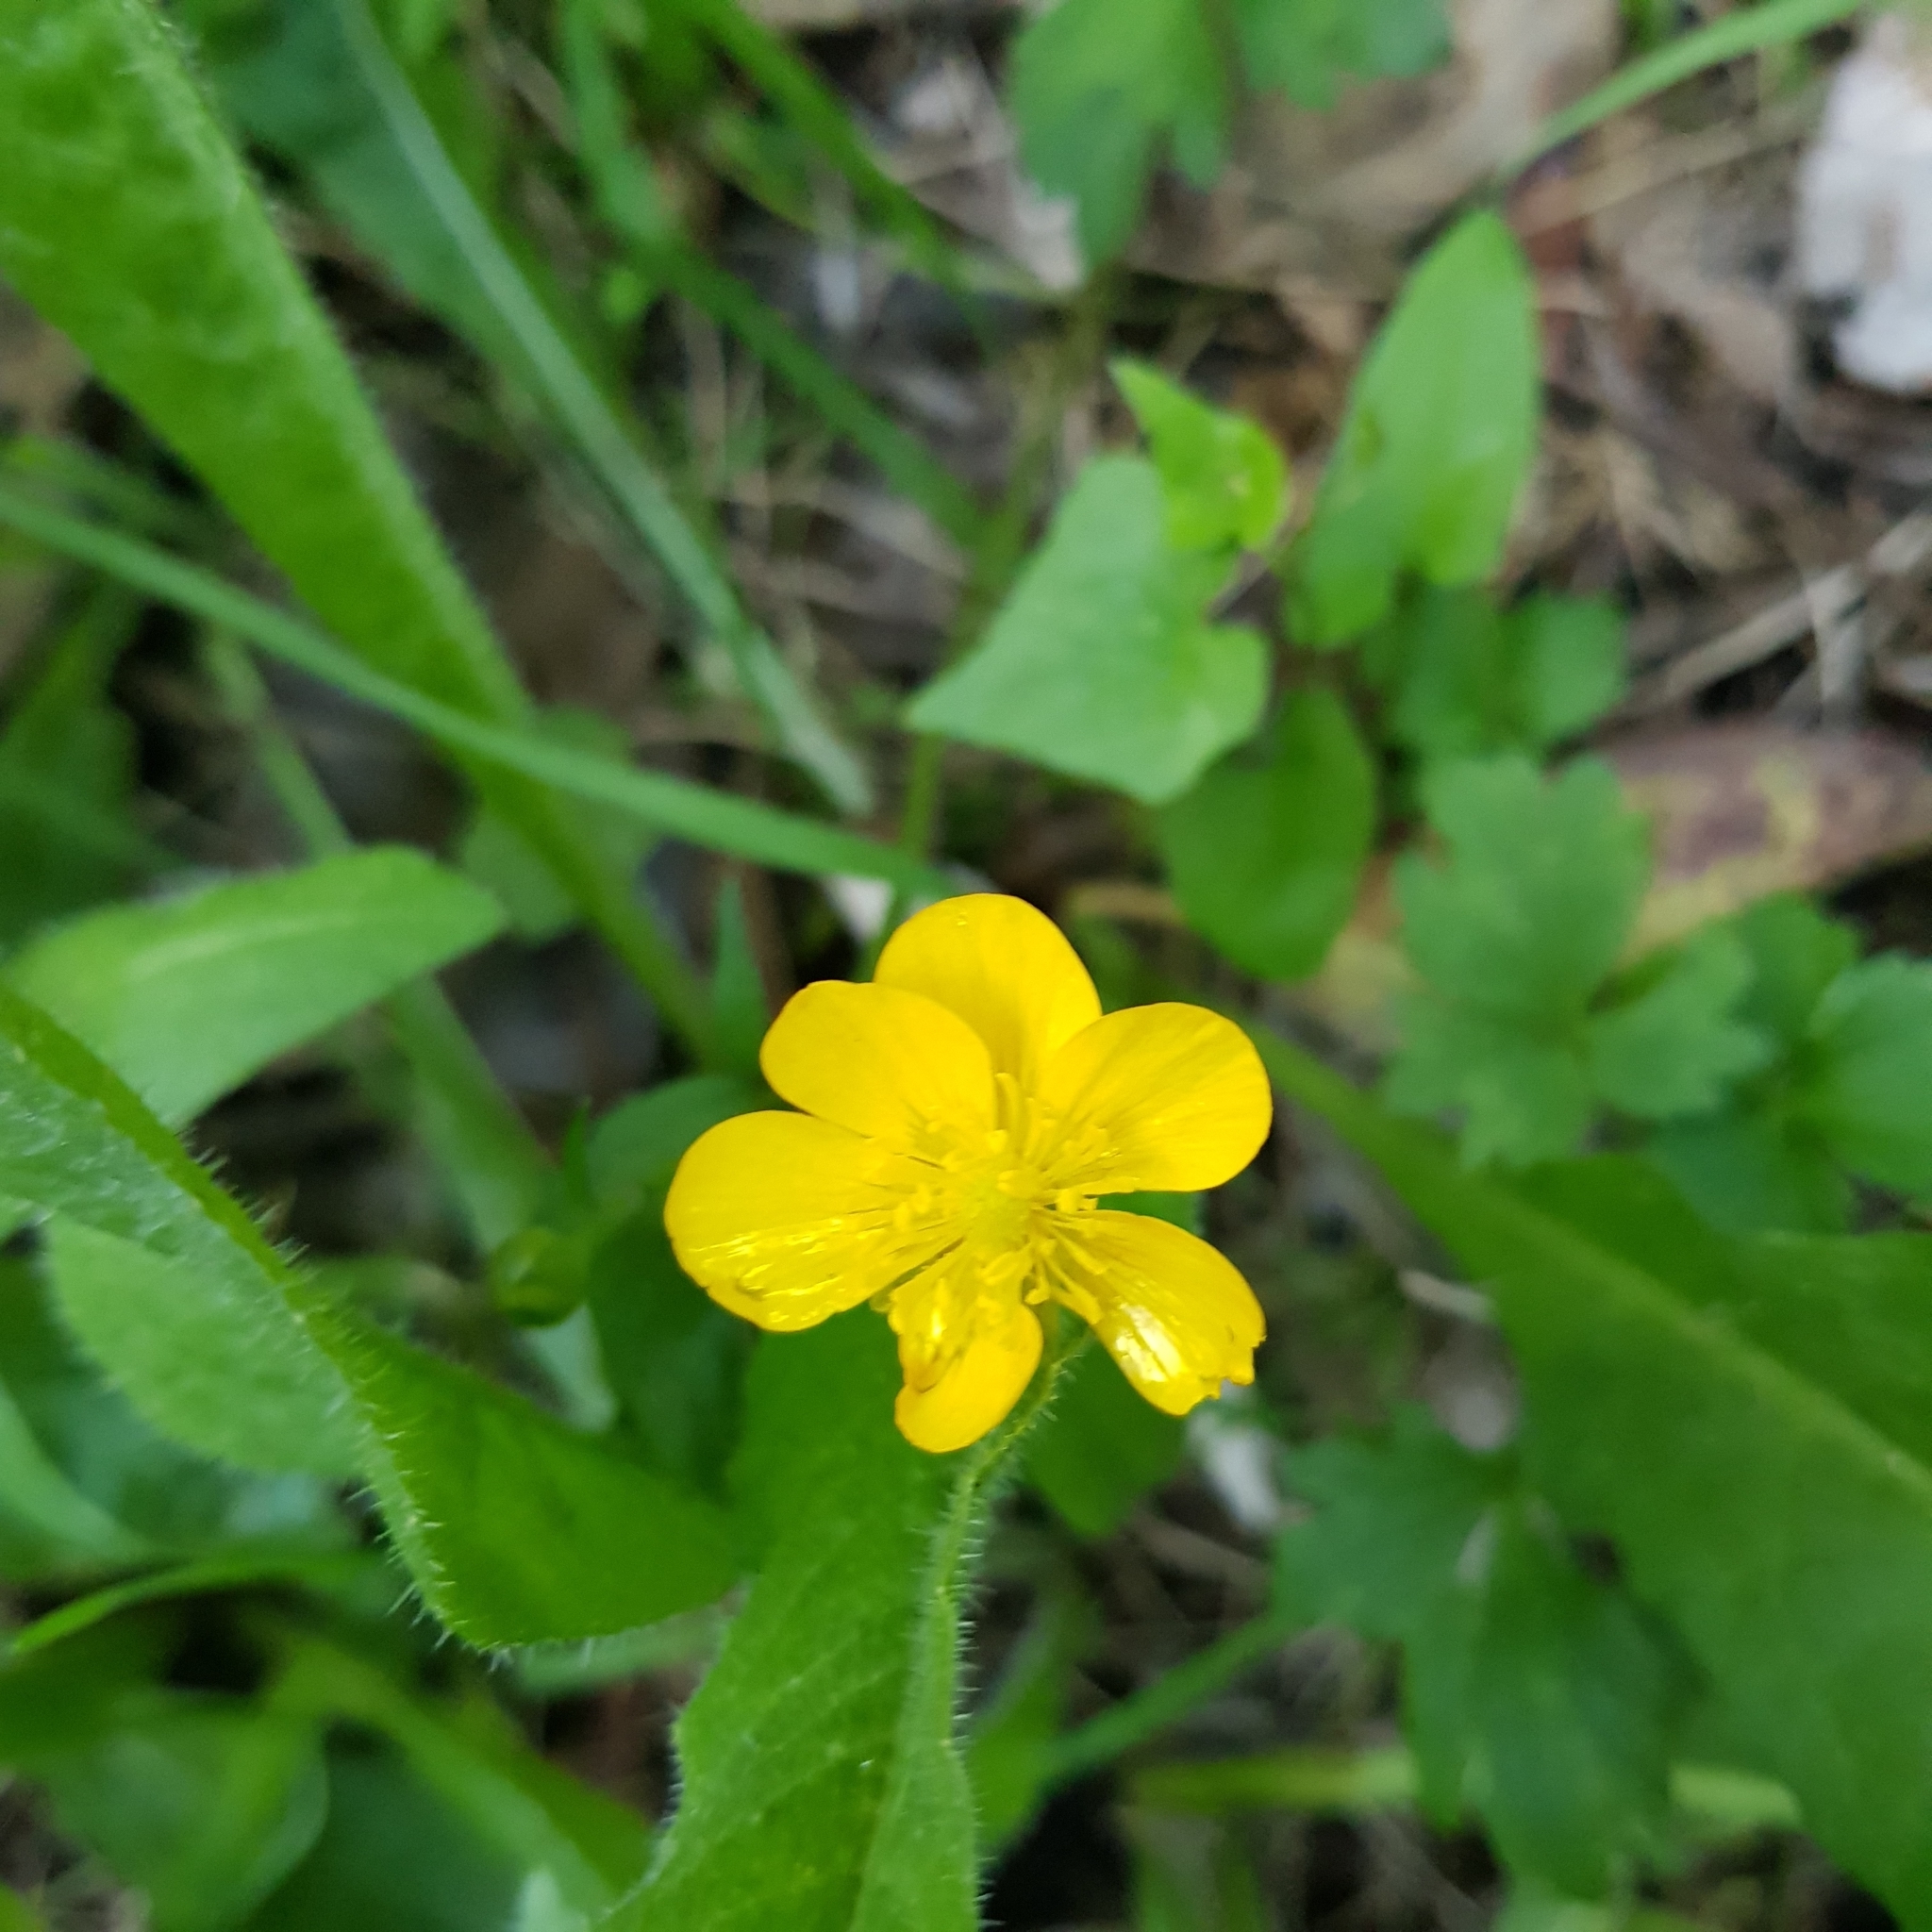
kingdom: Plantae
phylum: Tracheophyta
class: Magnoliopsida
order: Ranunculales
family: Ranunculaceae
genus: Ranunculus
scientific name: Ranunculus repens
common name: Creeping buttercup
